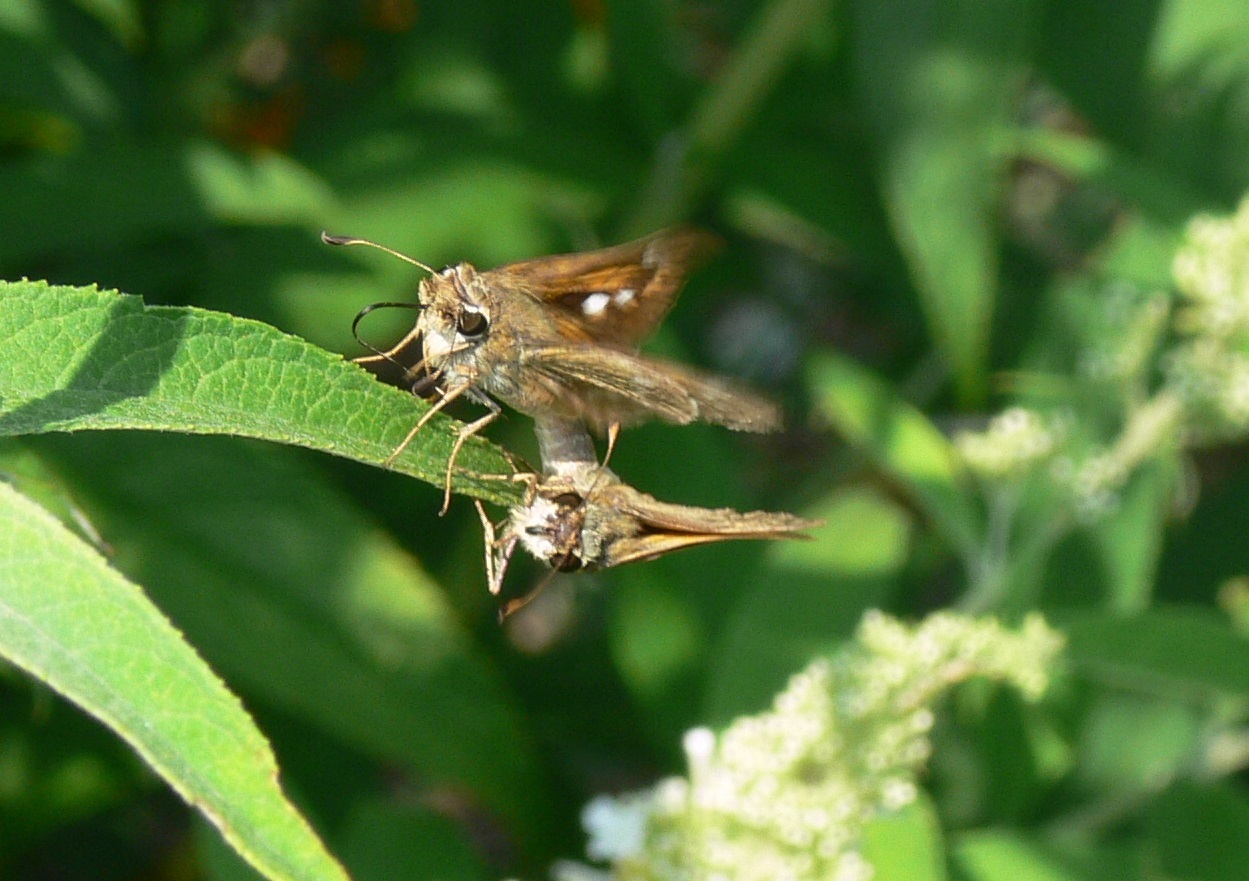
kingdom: Animalia
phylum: Arthropoda
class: Insecta
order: Lepidoptera
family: Hesperiidae
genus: Atalopedes
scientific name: Atalopedes
